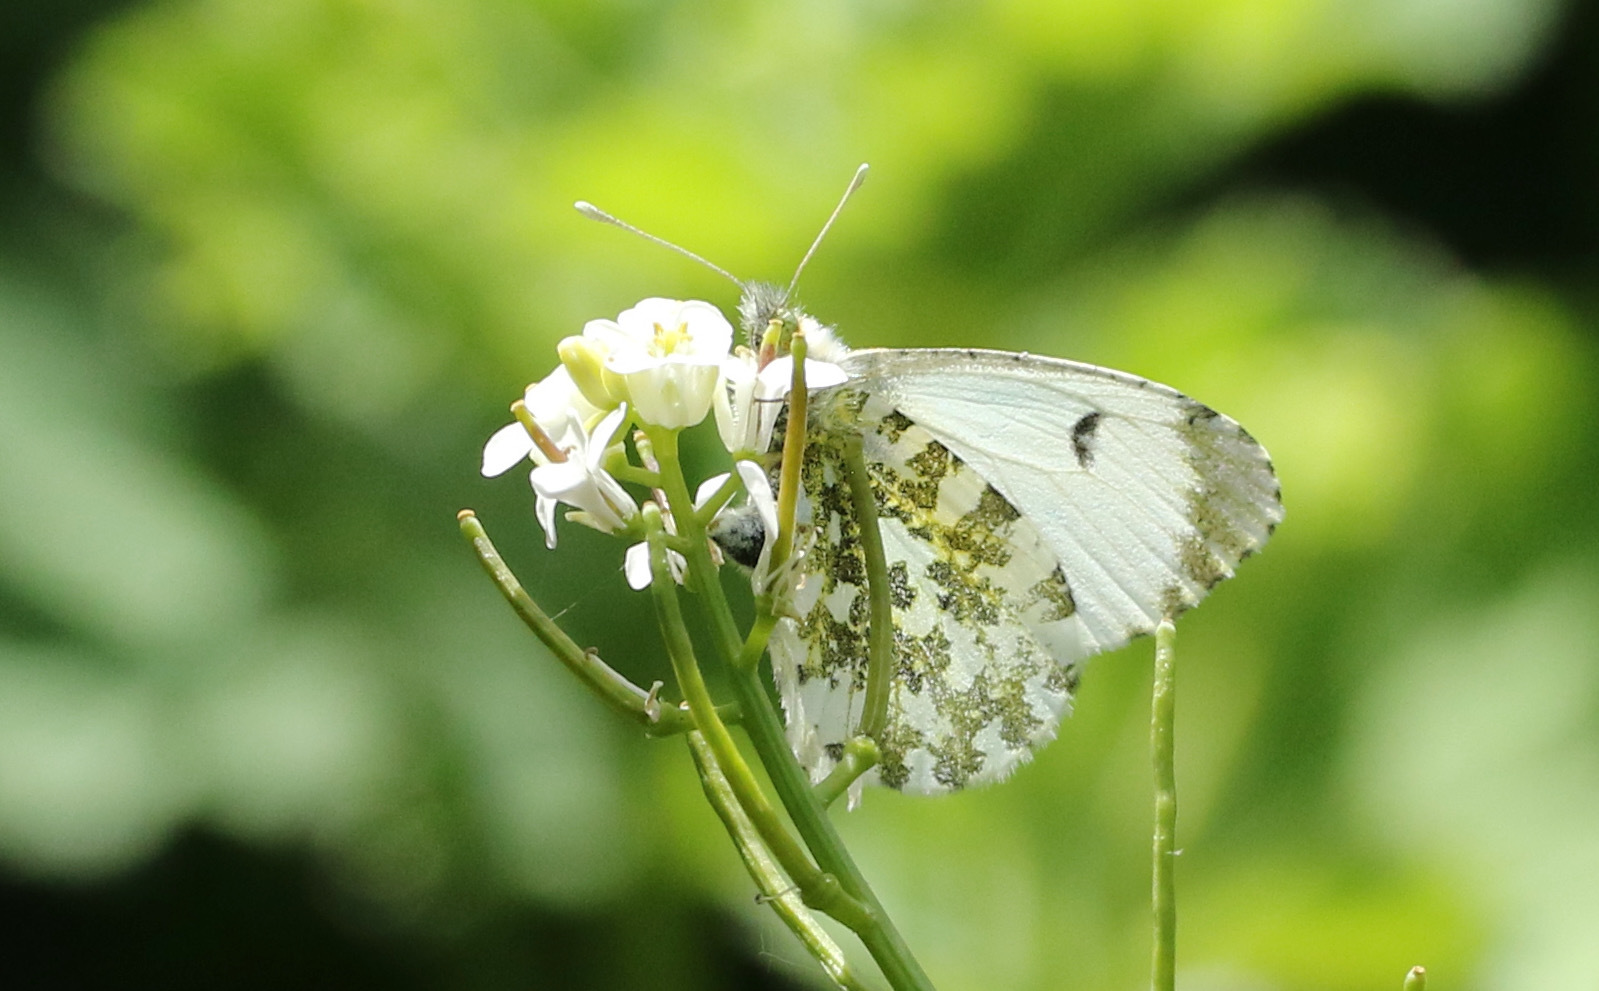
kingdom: Animalia
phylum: Arthropoda
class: Insecta
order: Lepidoptera
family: Pieridae
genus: Anthocharis
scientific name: Anthocharis cardamines
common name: Orange-tip
